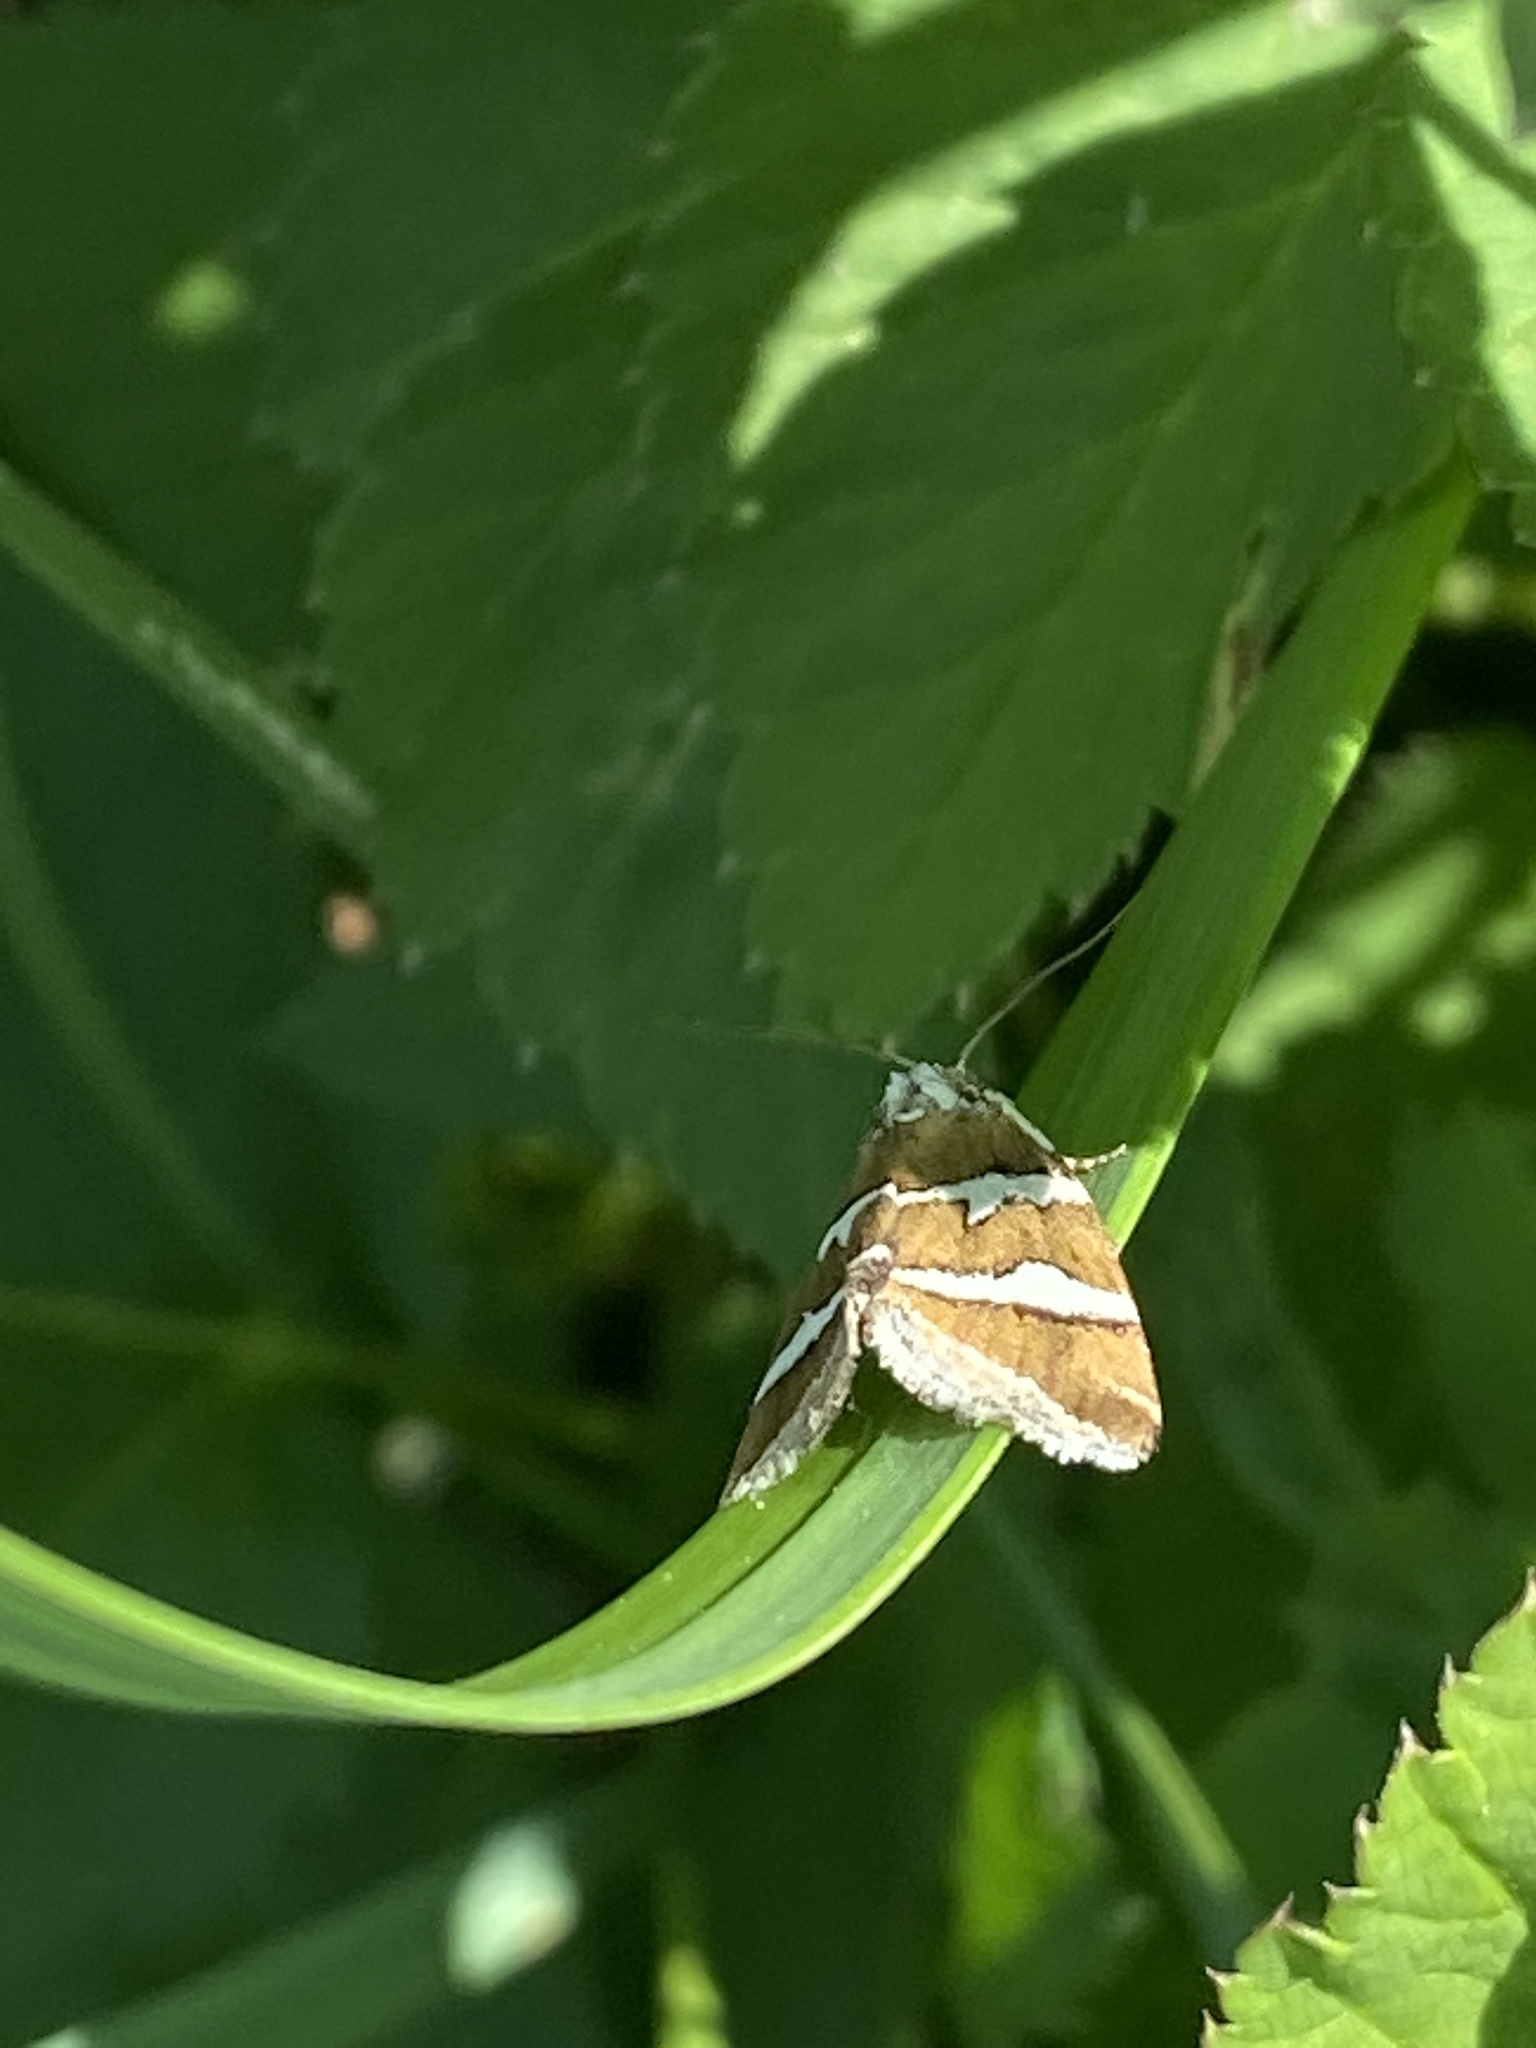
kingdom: Animalia
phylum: Arthropoda
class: Insecta
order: Lepidoptera
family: Noctuidae
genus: Deltote
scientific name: Deltote bankiana
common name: Silver barred
